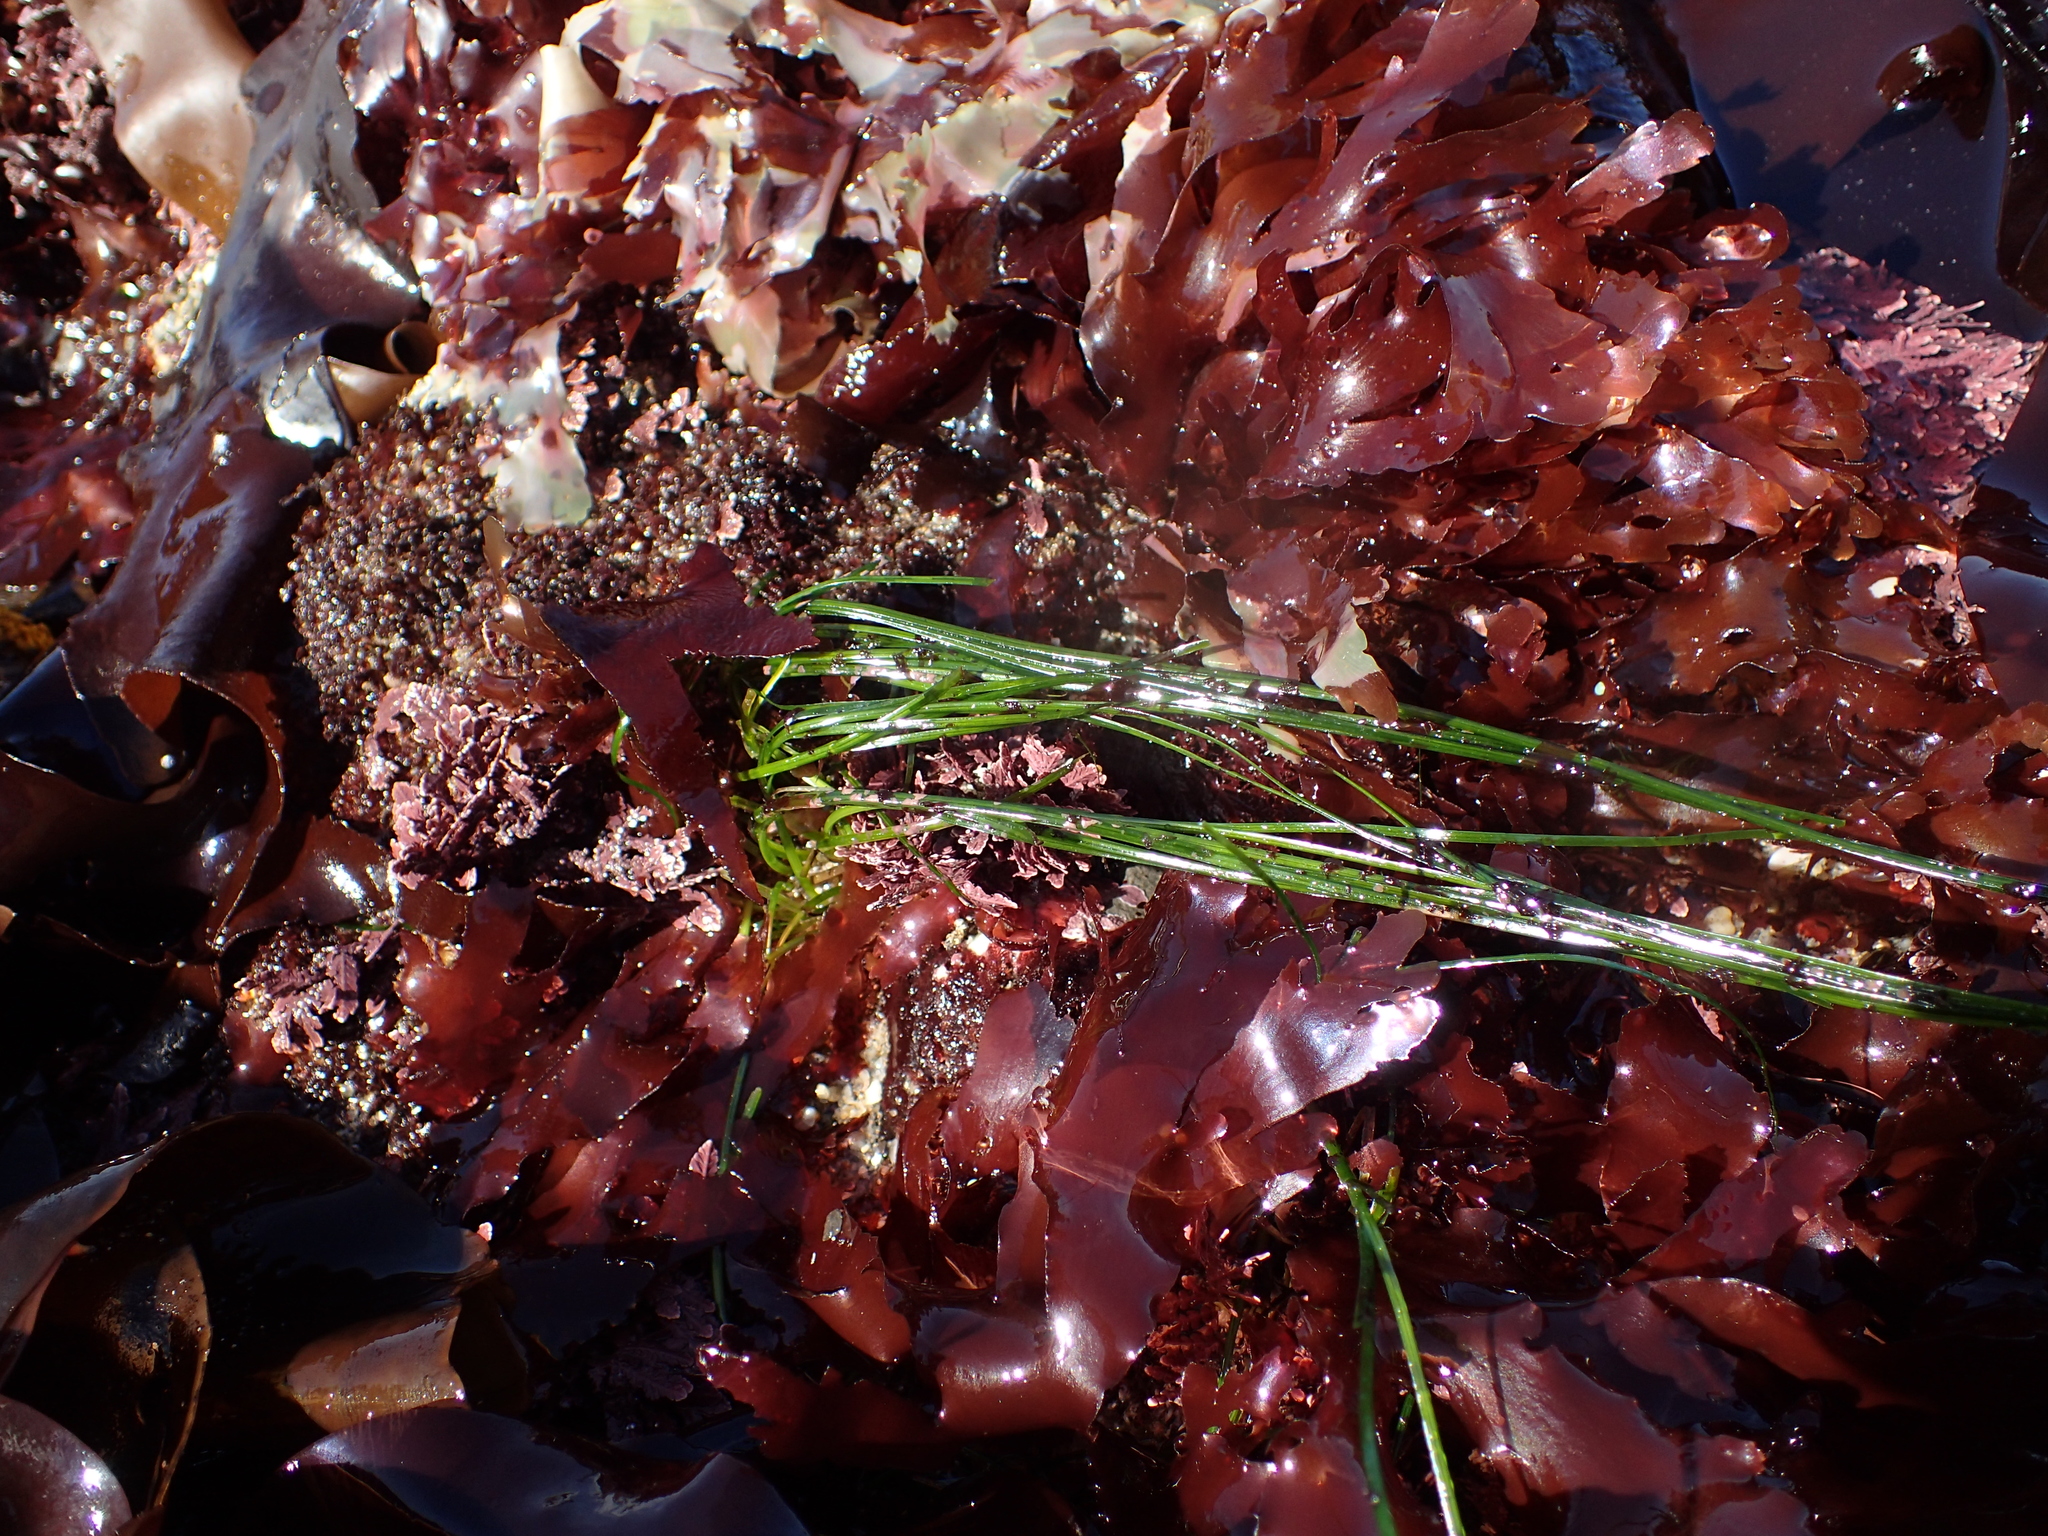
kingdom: Plantae
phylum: Tracheophyta
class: Liliopsida
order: Alismatales
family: Zosteraceae
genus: Phyllospadix
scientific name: Phyllospadix torreyi
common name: Surfgrass
